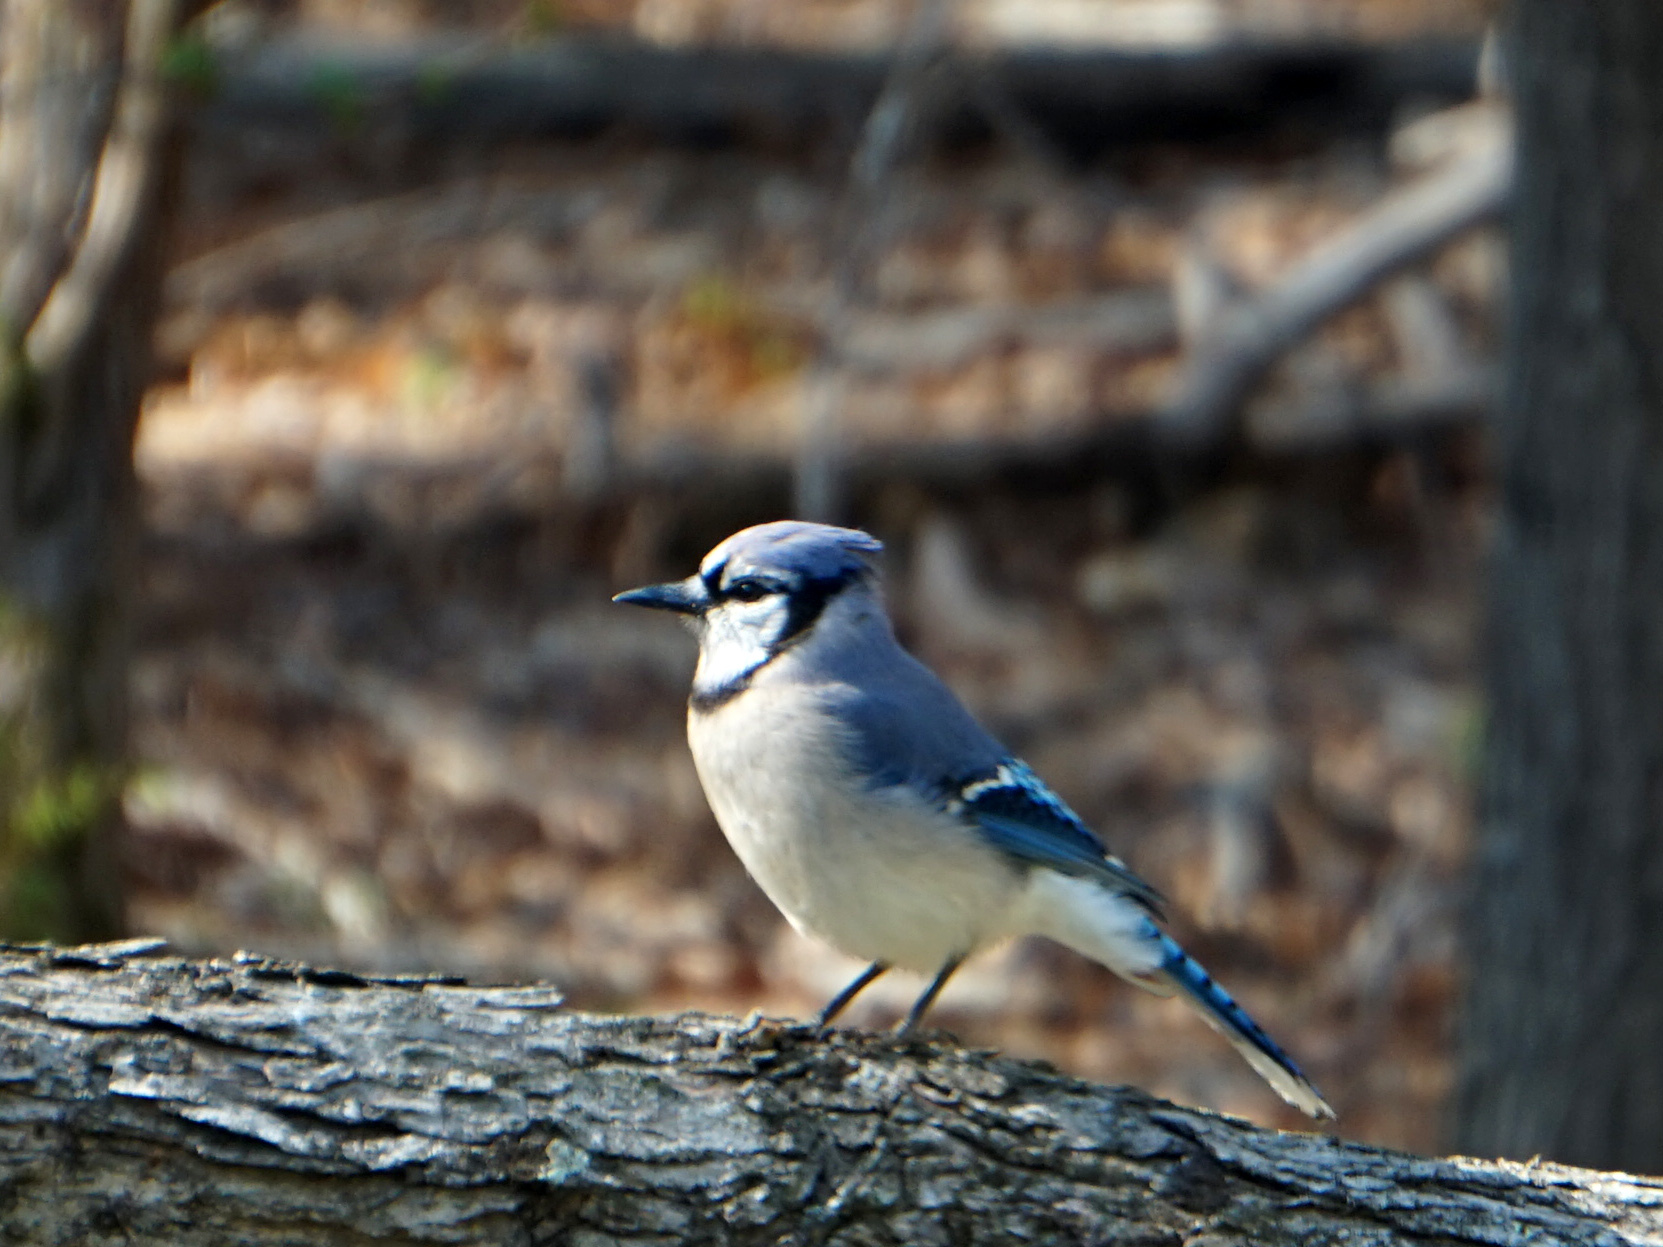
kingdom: Animalia
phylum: Chordata
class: Aves
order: Passeriformes
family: Corvidae
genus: Cyanocitta
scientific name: Cyanocitta cristata
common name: Blue jay
